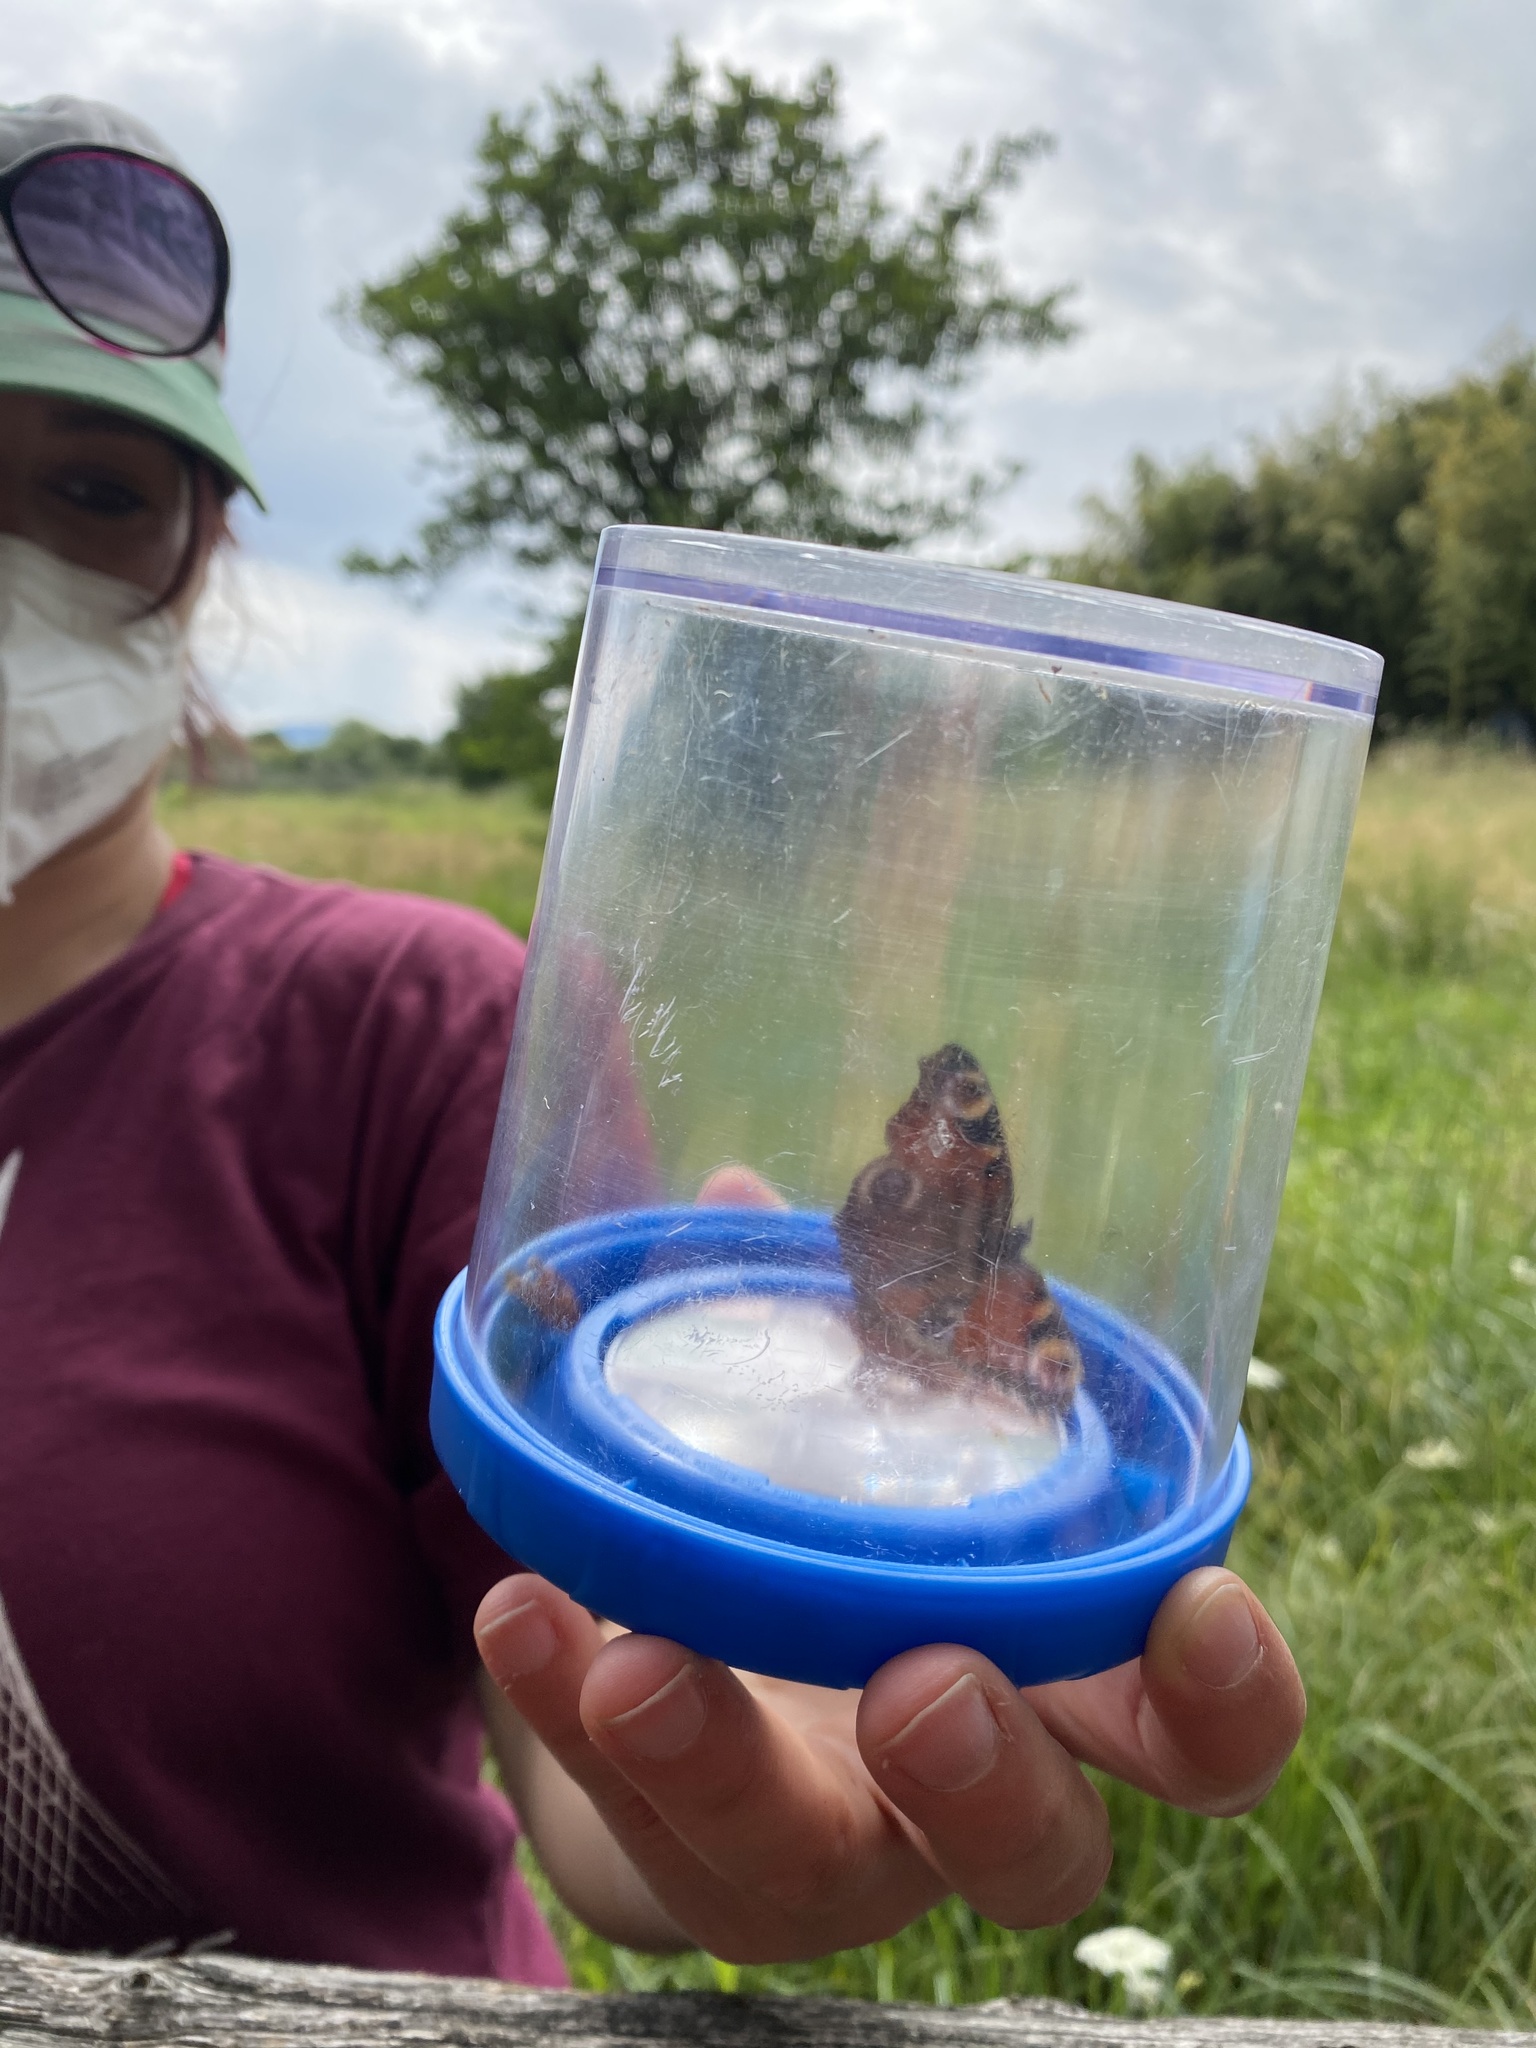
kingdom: Animalia
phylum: Arthropoda
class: Insecta
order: Lepidoptera
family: Nymphalidae
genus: Aglais
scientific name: Aglais io
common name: Peacock
